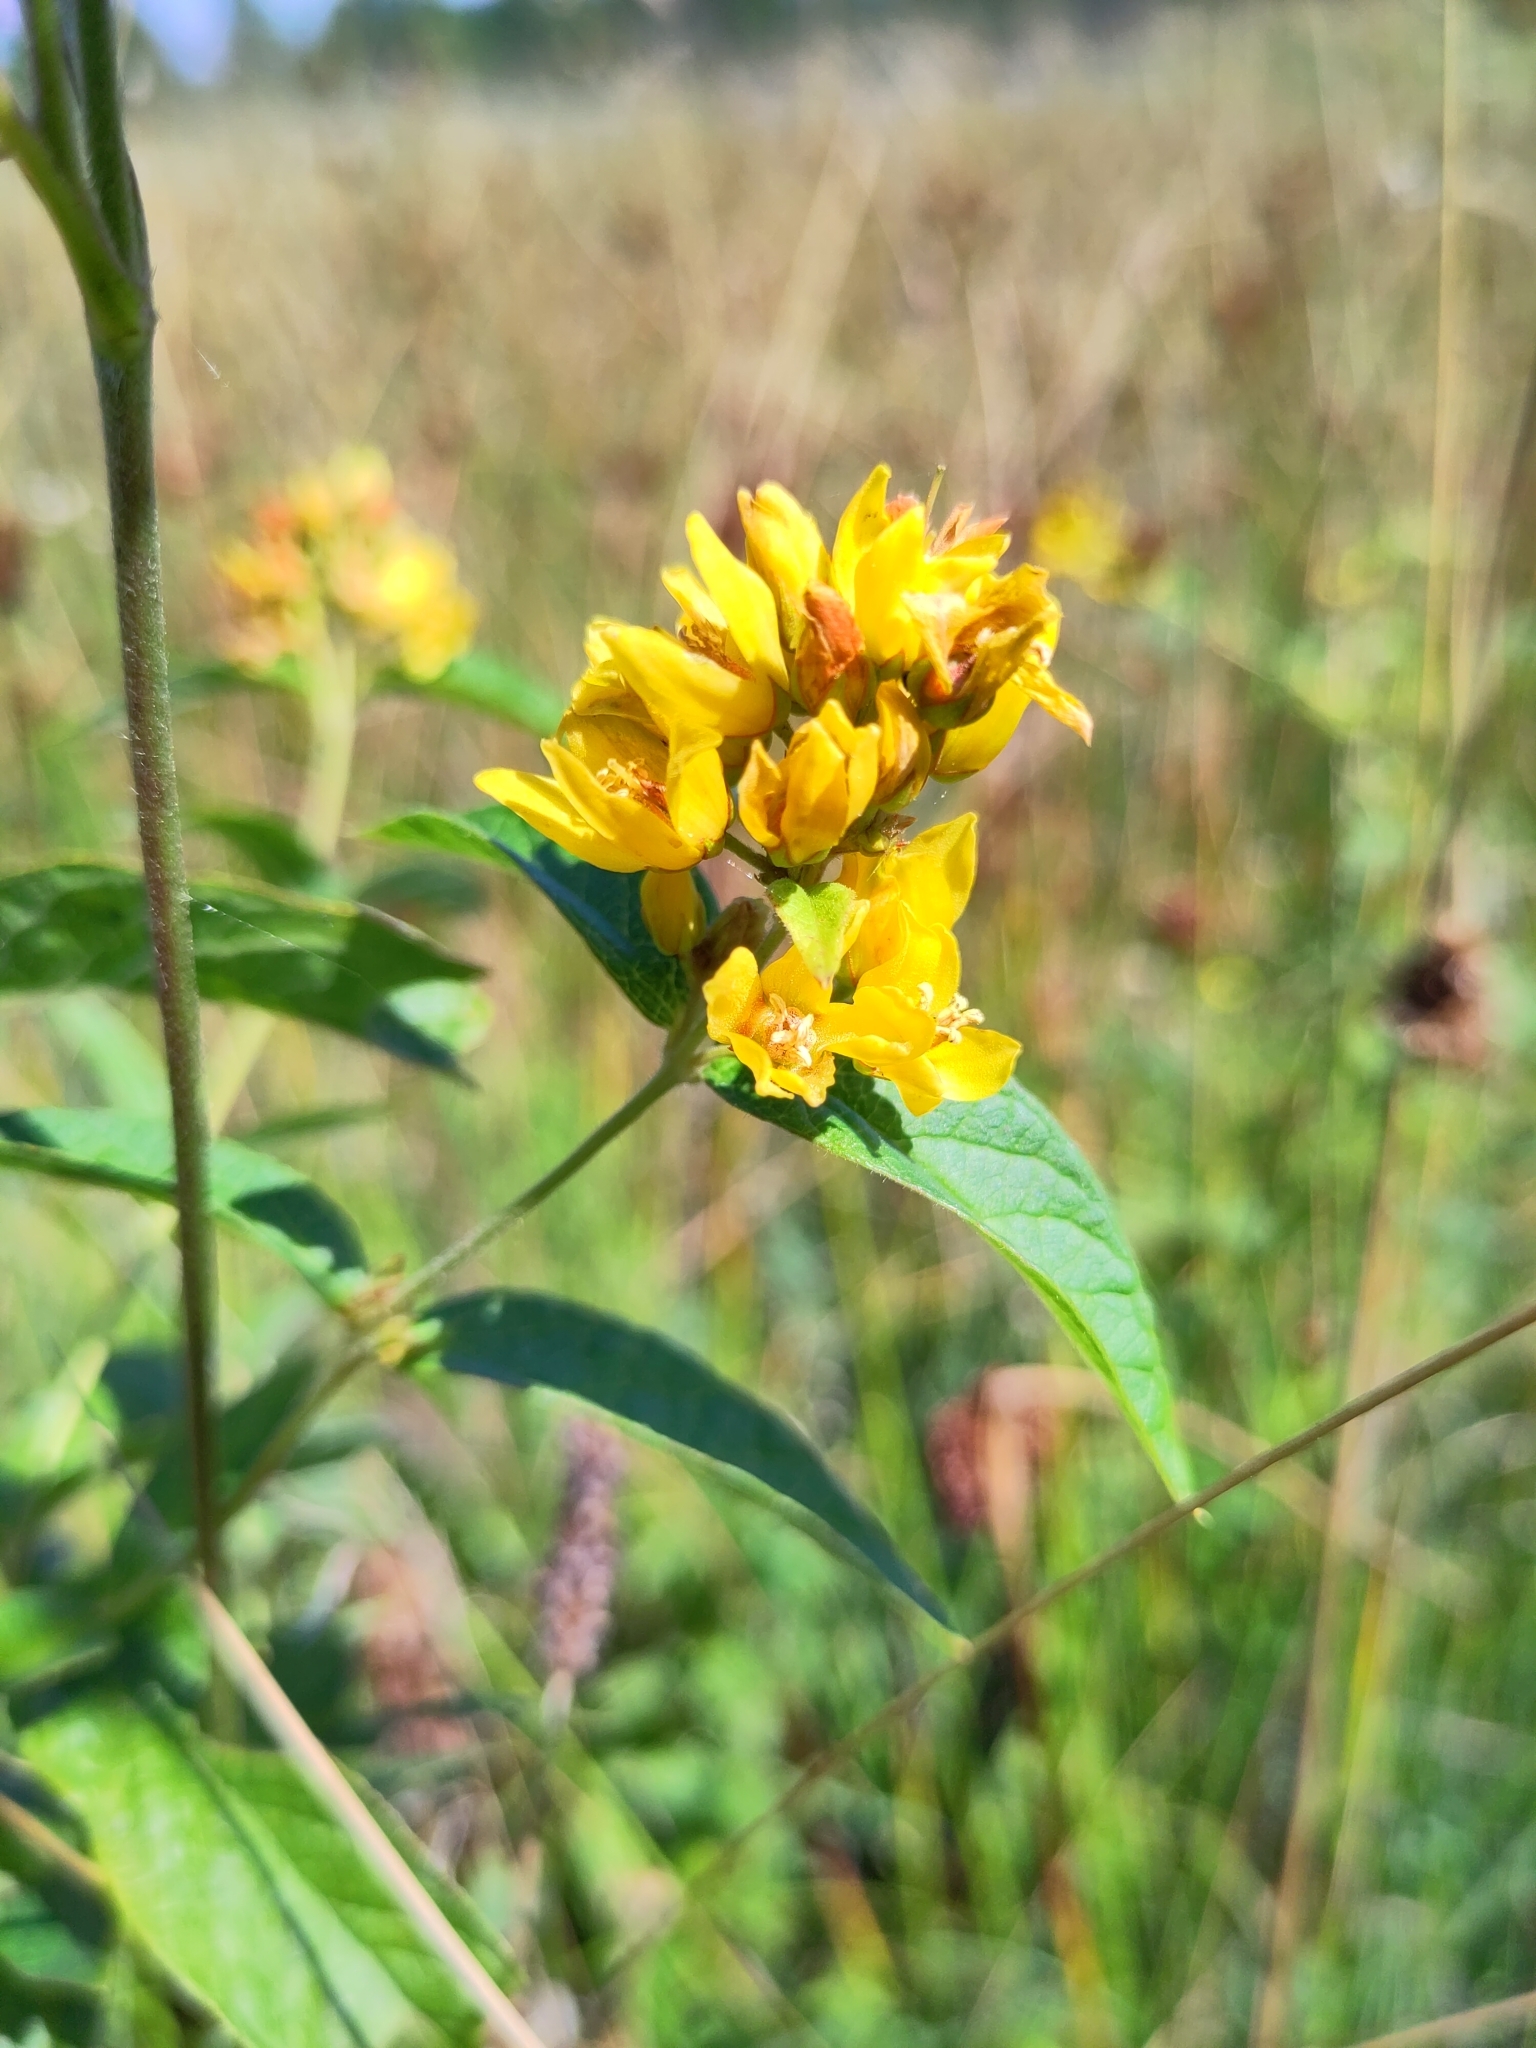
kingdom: Plantae
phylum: Tracheophyta
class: Magnoliopsida
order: Ericales
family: Primulaceae
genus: Lysimachia
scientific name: Lysimachia vulgaris
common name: Yellow loosestrife
